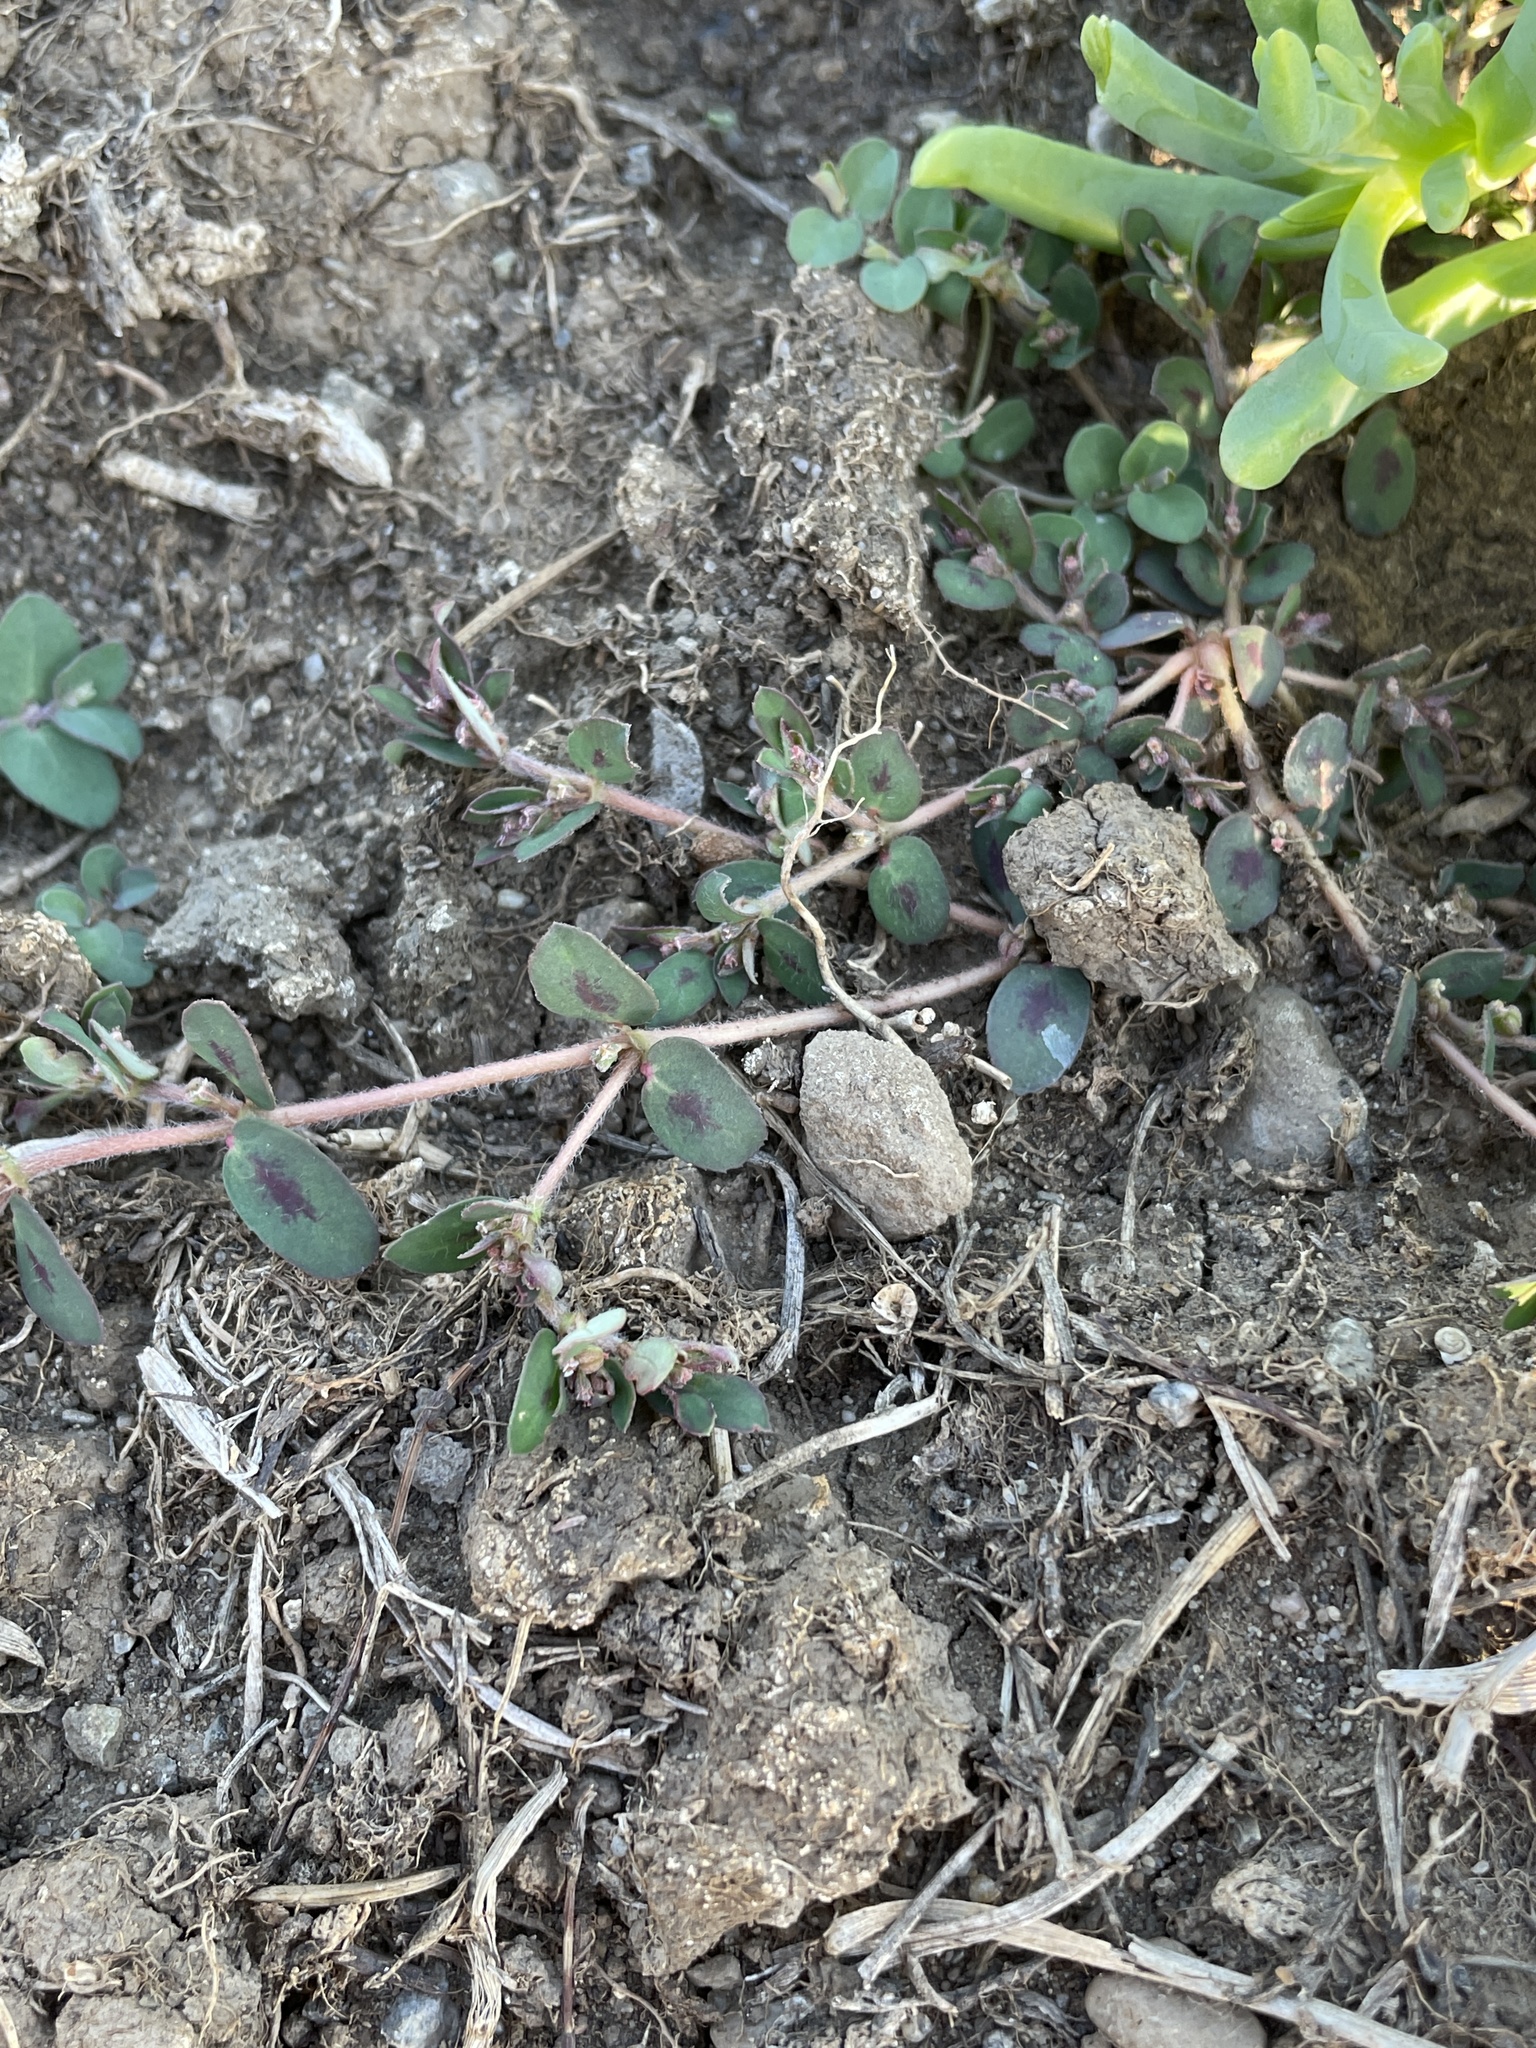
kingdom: Plantae
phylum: Tracheophyta
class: Magnoliopsida
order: Malpighiales
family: Euphorbiaceae
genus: Euphorbia
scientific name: Euphorbia maculata
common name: Spotted spurge
